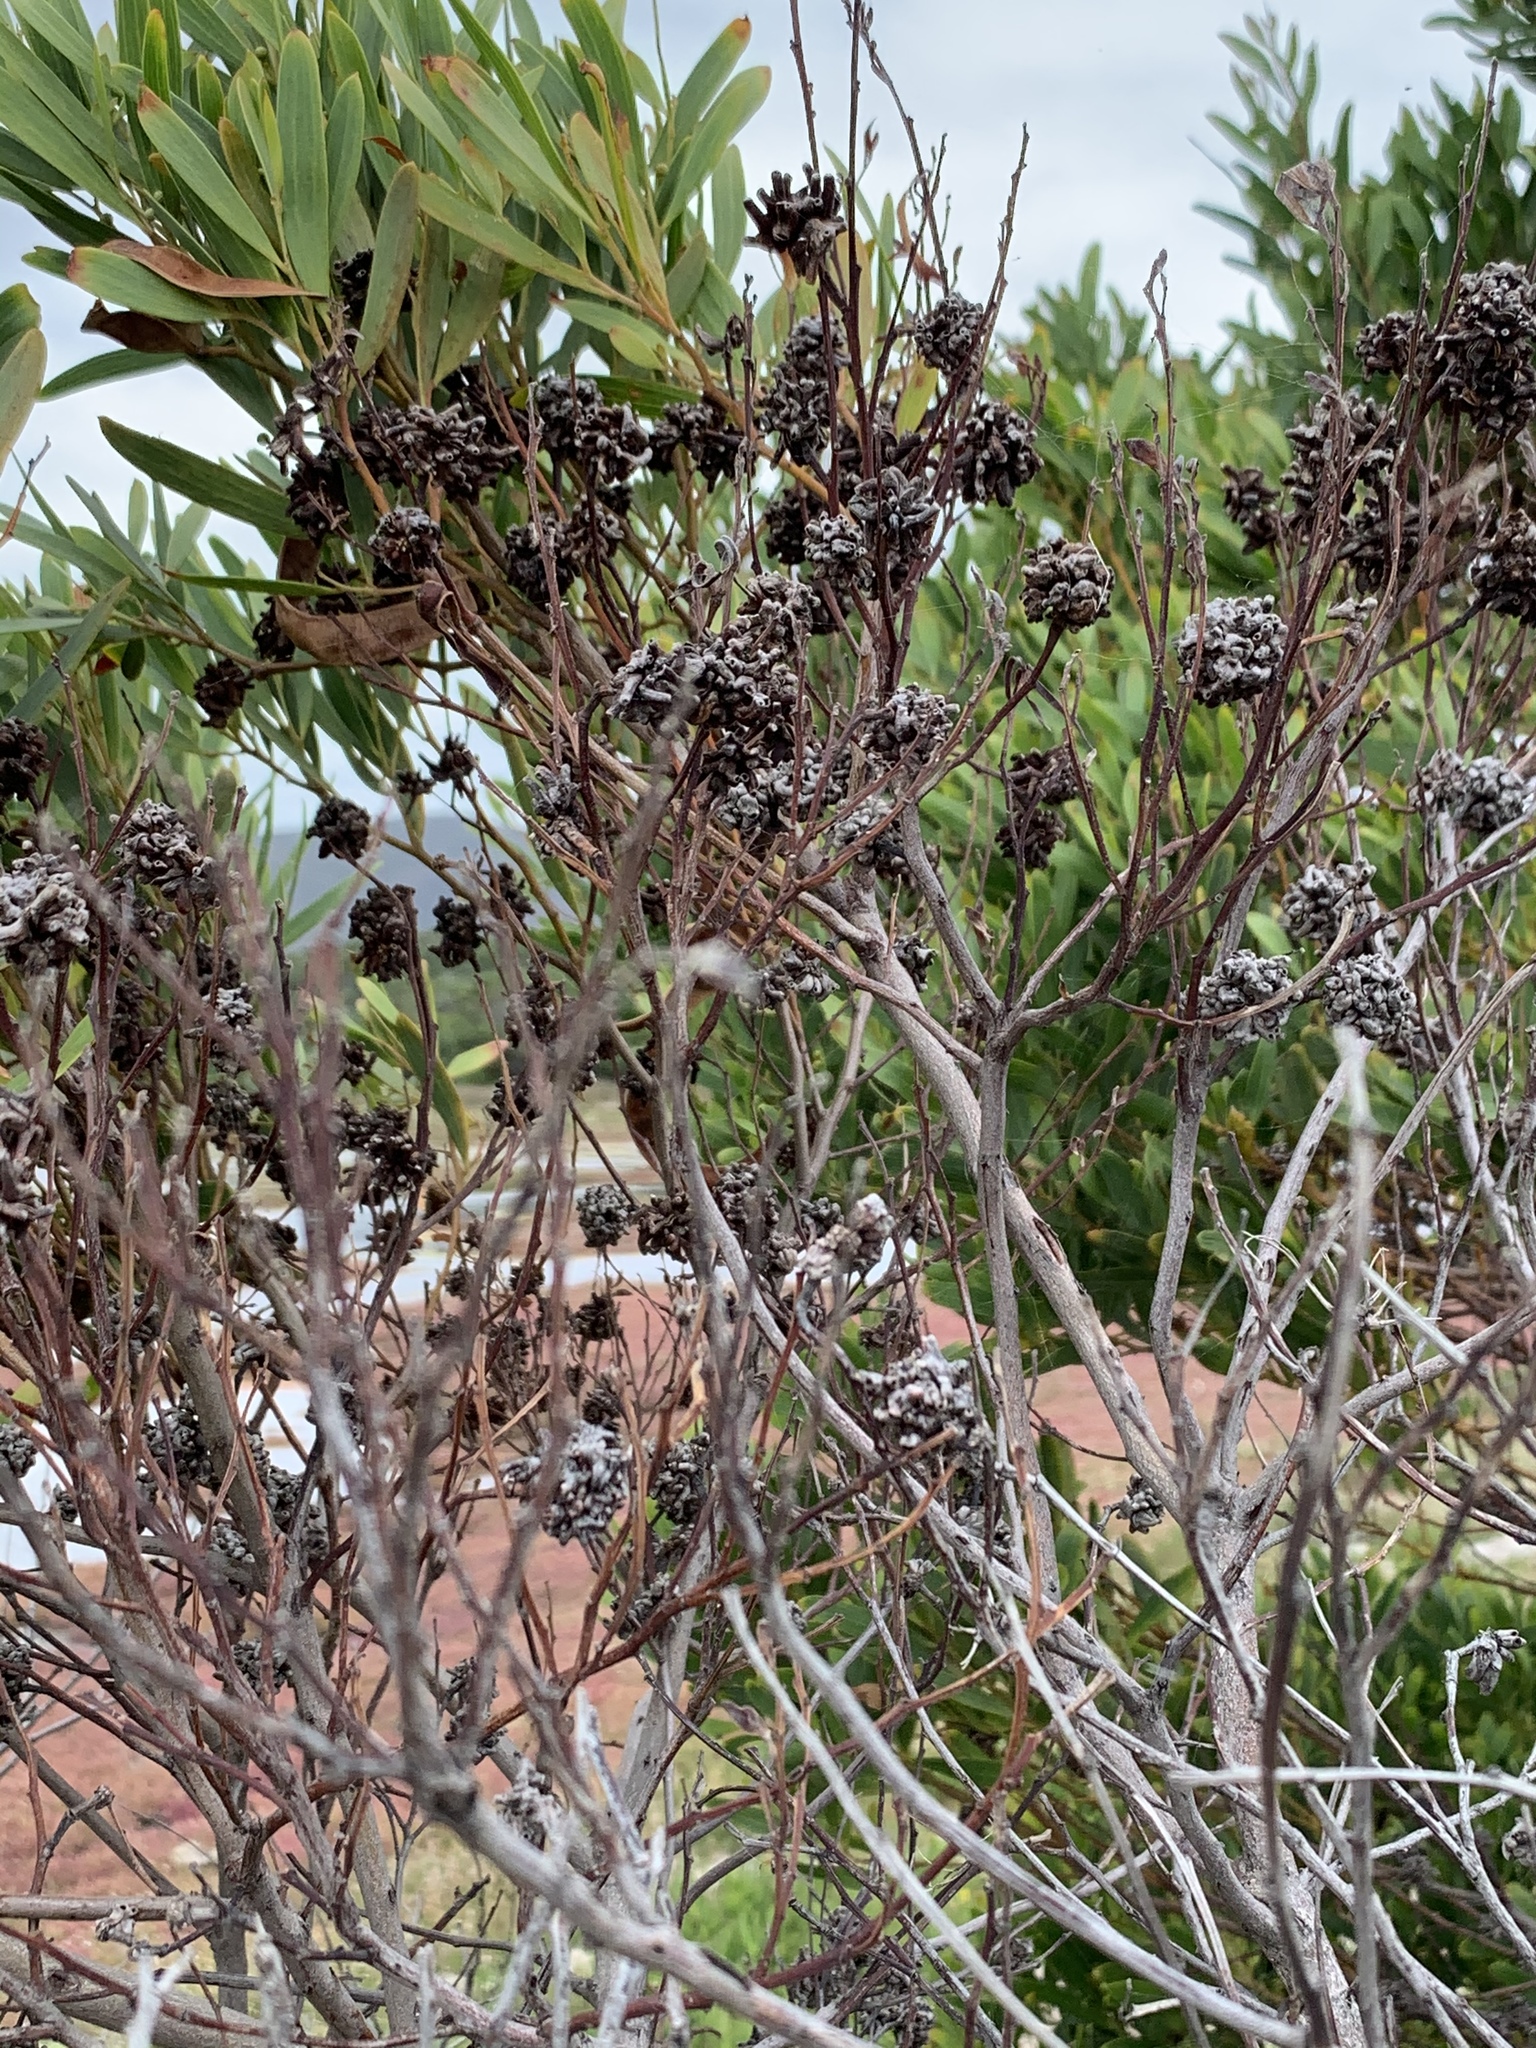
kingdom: Animalia
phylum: Arthropoda
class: Insecta
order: Diptera
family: Cecidomyiidae
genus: Dasineura
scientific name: Dasineura dielsi
